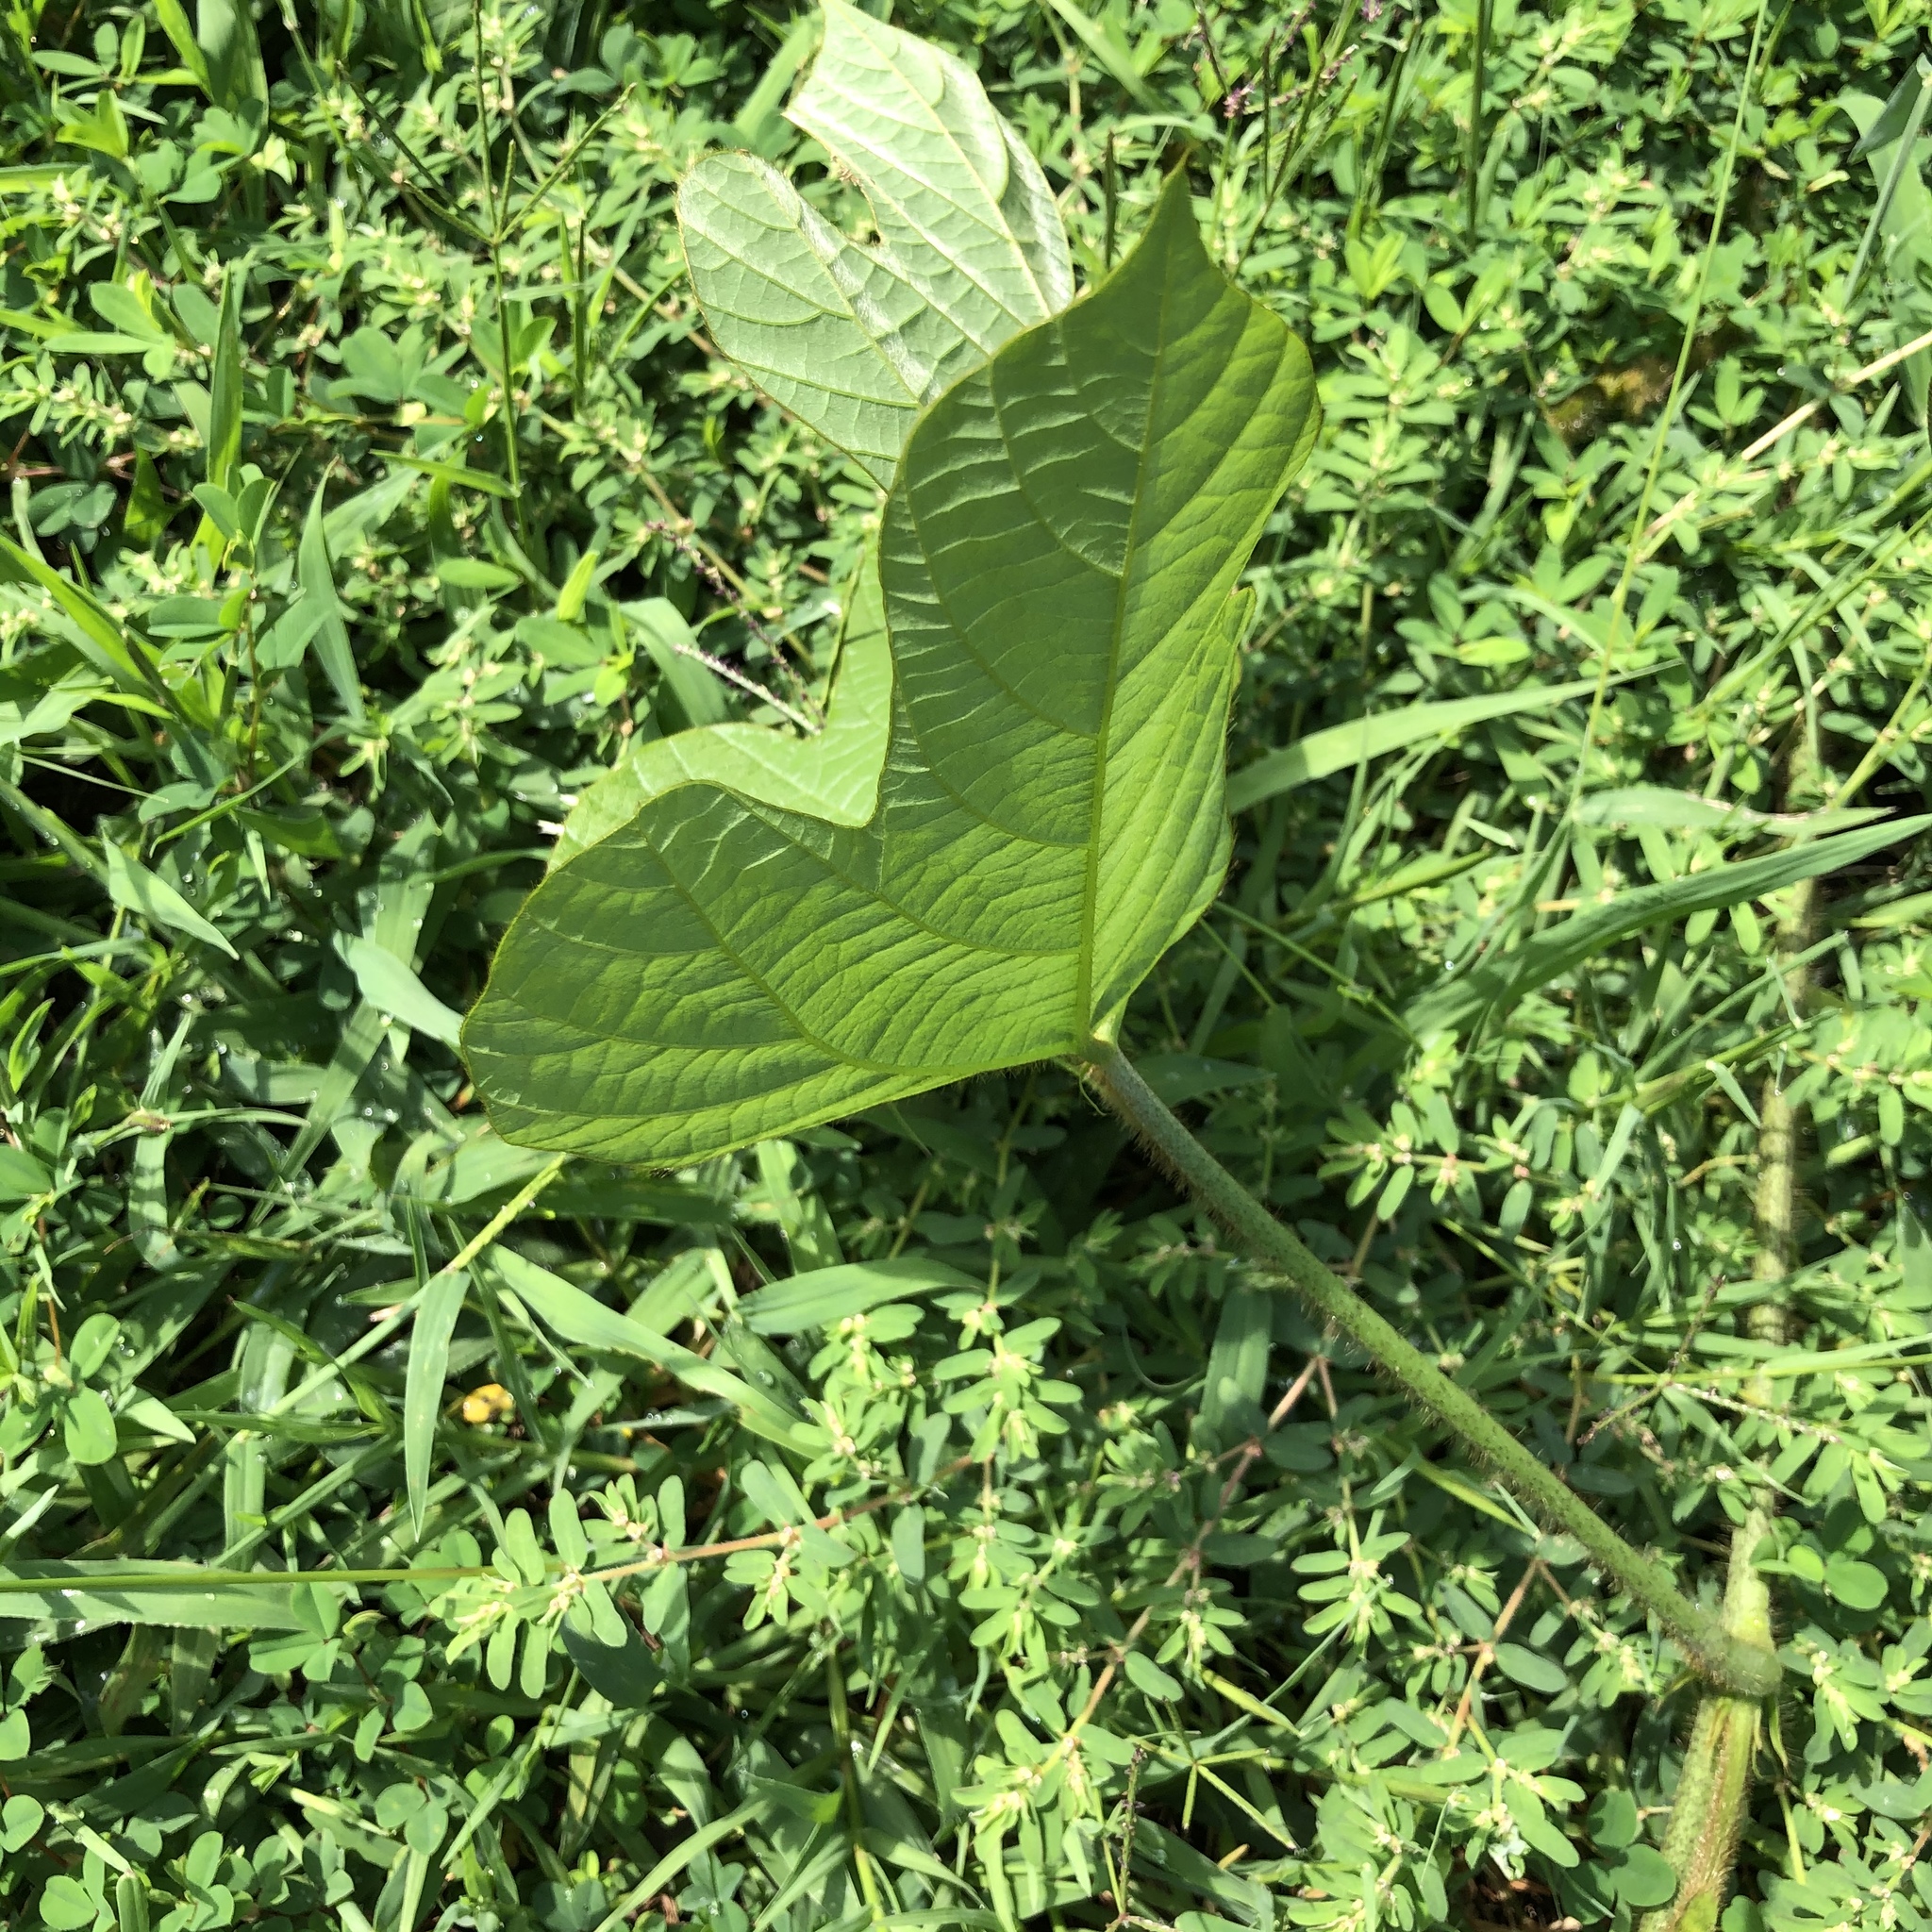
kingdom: Plantae
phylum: Tracheophyta
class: Magnoliopsida
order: Fabales
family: Fabaceae
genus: Pueraria
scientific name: Pueraria montana
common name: Kudzu
